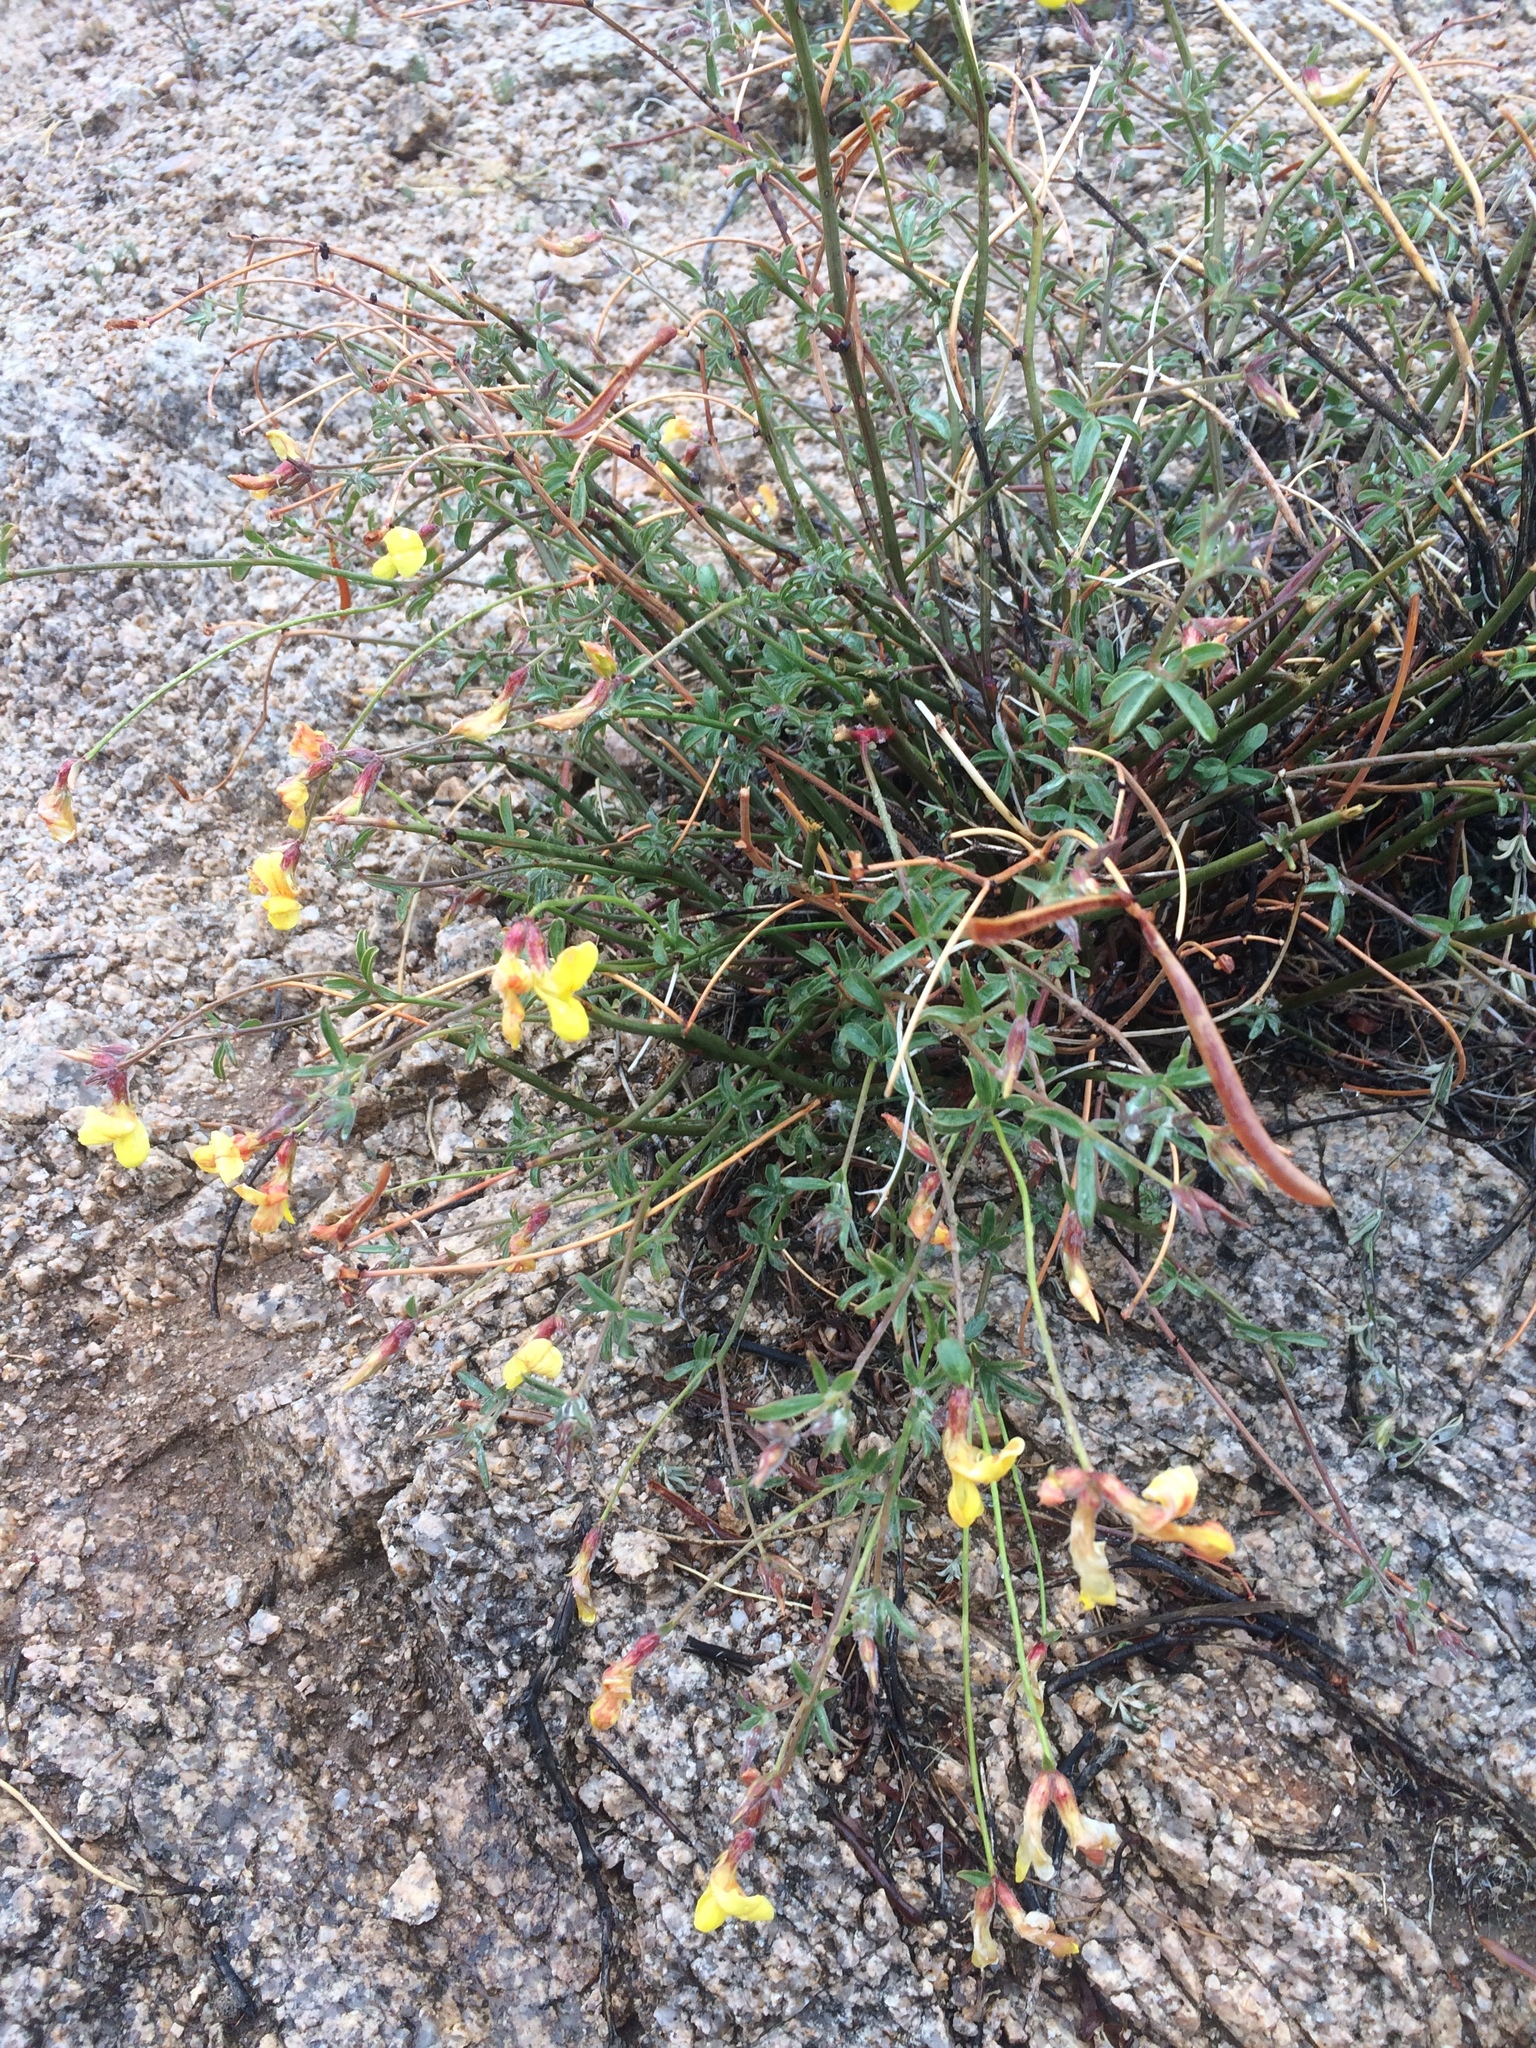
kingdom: Plantae
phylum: Tracheophyta
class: Magnoliopsida
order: Fabales
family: Fabaceae
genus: Acmispon
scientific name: Acmispon rigidus
